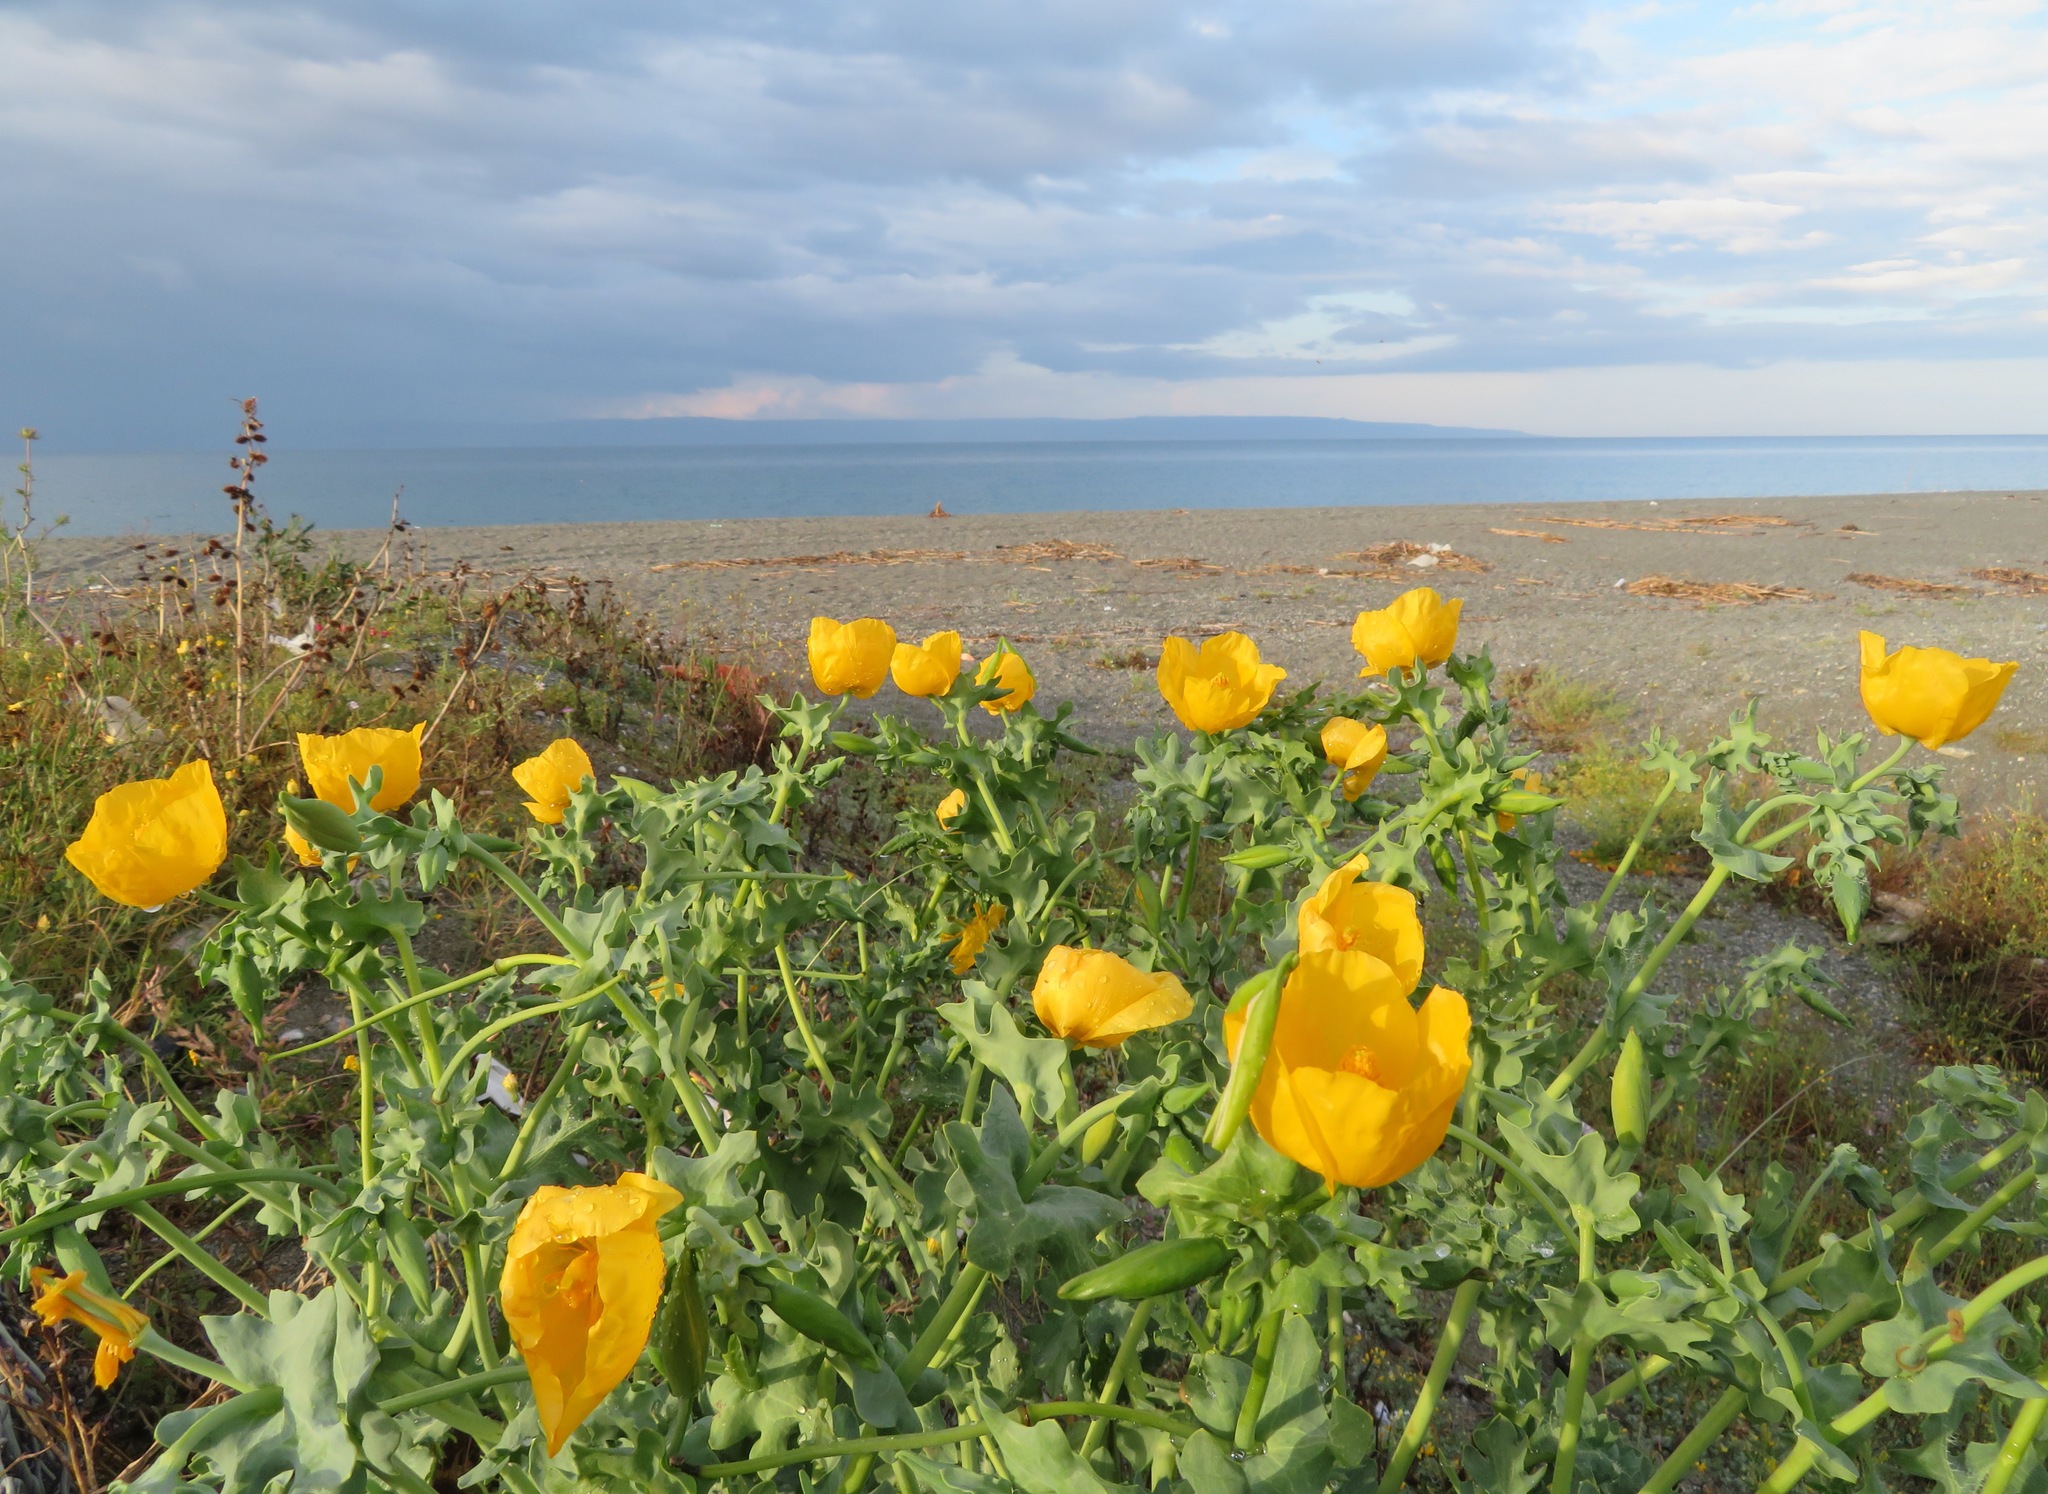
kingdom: Plantae
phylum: Tracheophyta
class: Magnoliopsida
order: Ranunculales
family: Papaveraceae
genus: Glaucium
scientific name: Glaucium flavum
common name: Yellow horned-poppy
